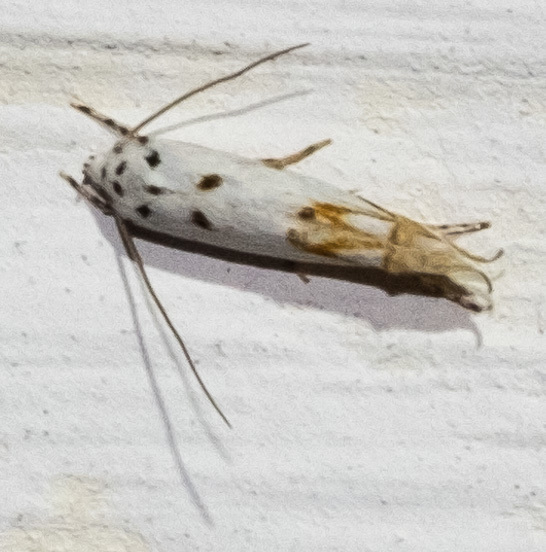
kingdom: Animalia
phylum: Arthropoda
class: Insecta
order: Lepidoptera
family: Momphidae
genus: Mompha
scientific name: Mompha eloisella
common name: Red-streaked mompha moth
